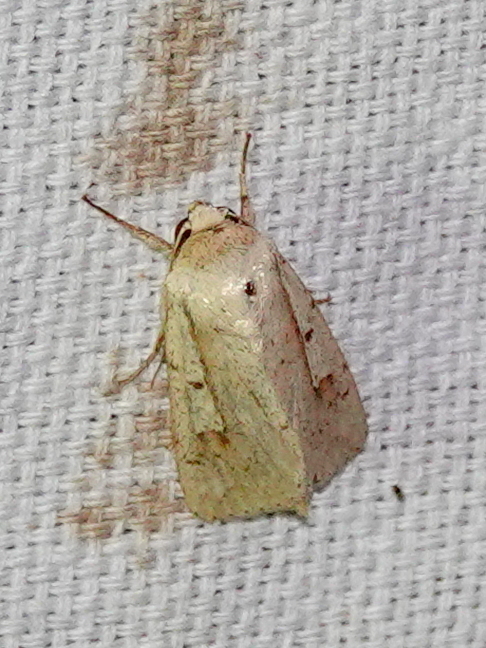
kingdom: Animalia
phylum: Arthropoda
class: Insecta
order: Lepidoptera
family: Noctuidae
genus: Leucania
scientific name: Leucania yu
